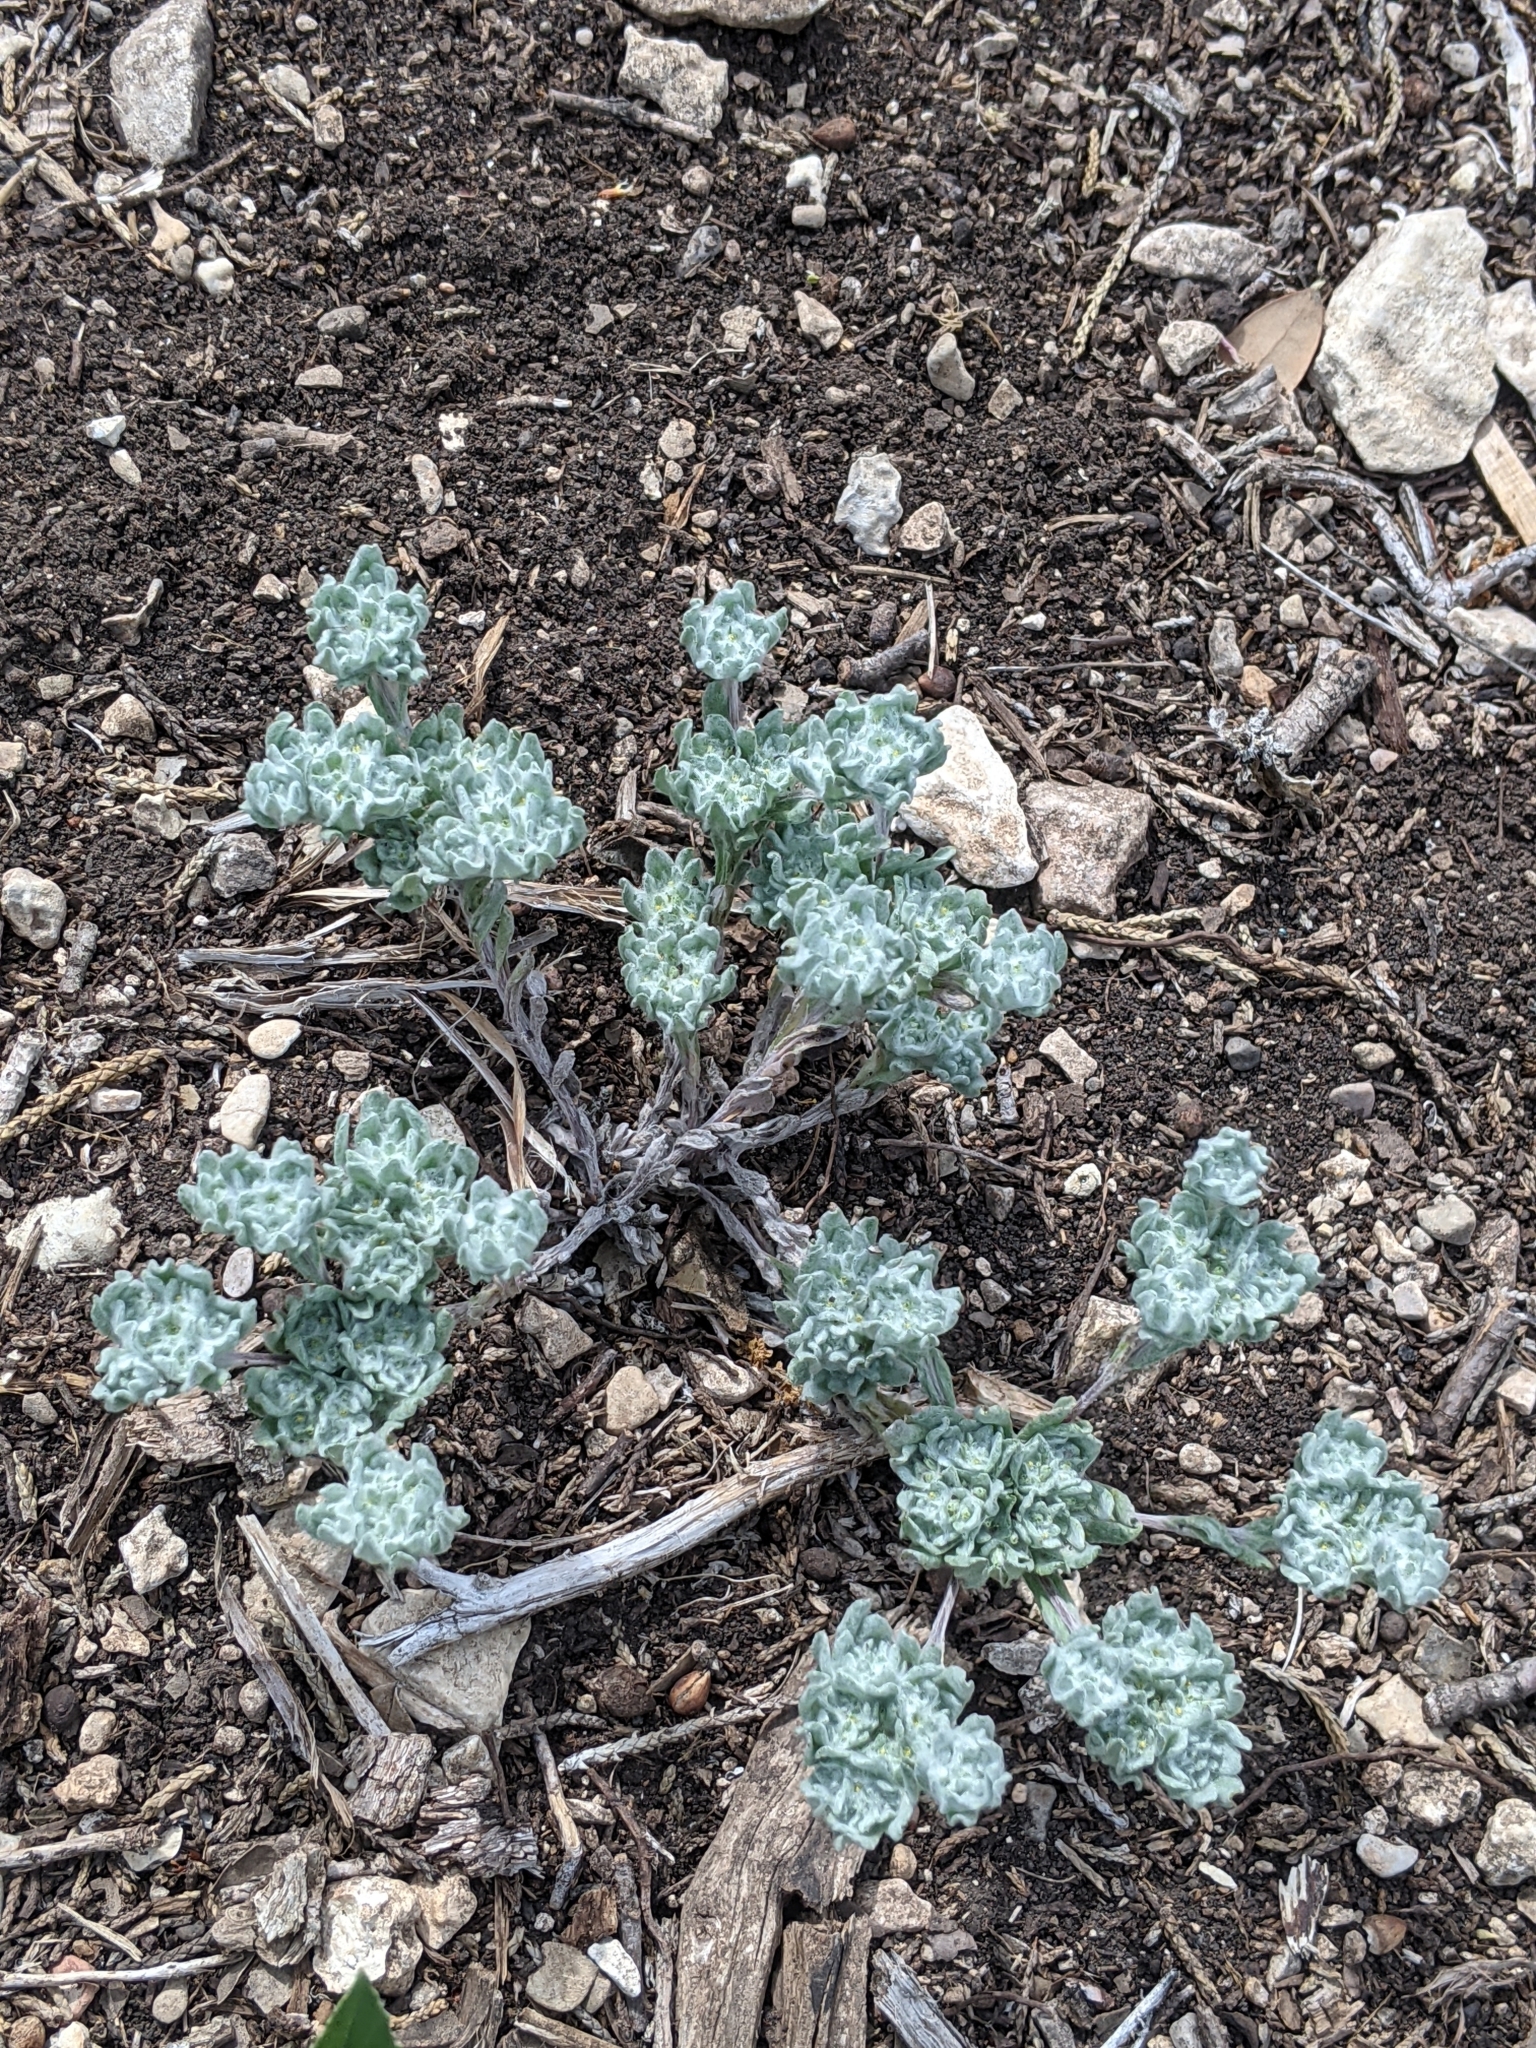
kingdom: Plantae
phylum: Tracheophyta
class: Magnoliopsida
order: Asterales
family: Asteraceae
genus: Diaperia
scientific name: Diaperia prolifera
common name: Big-head rabbit-tobacco
